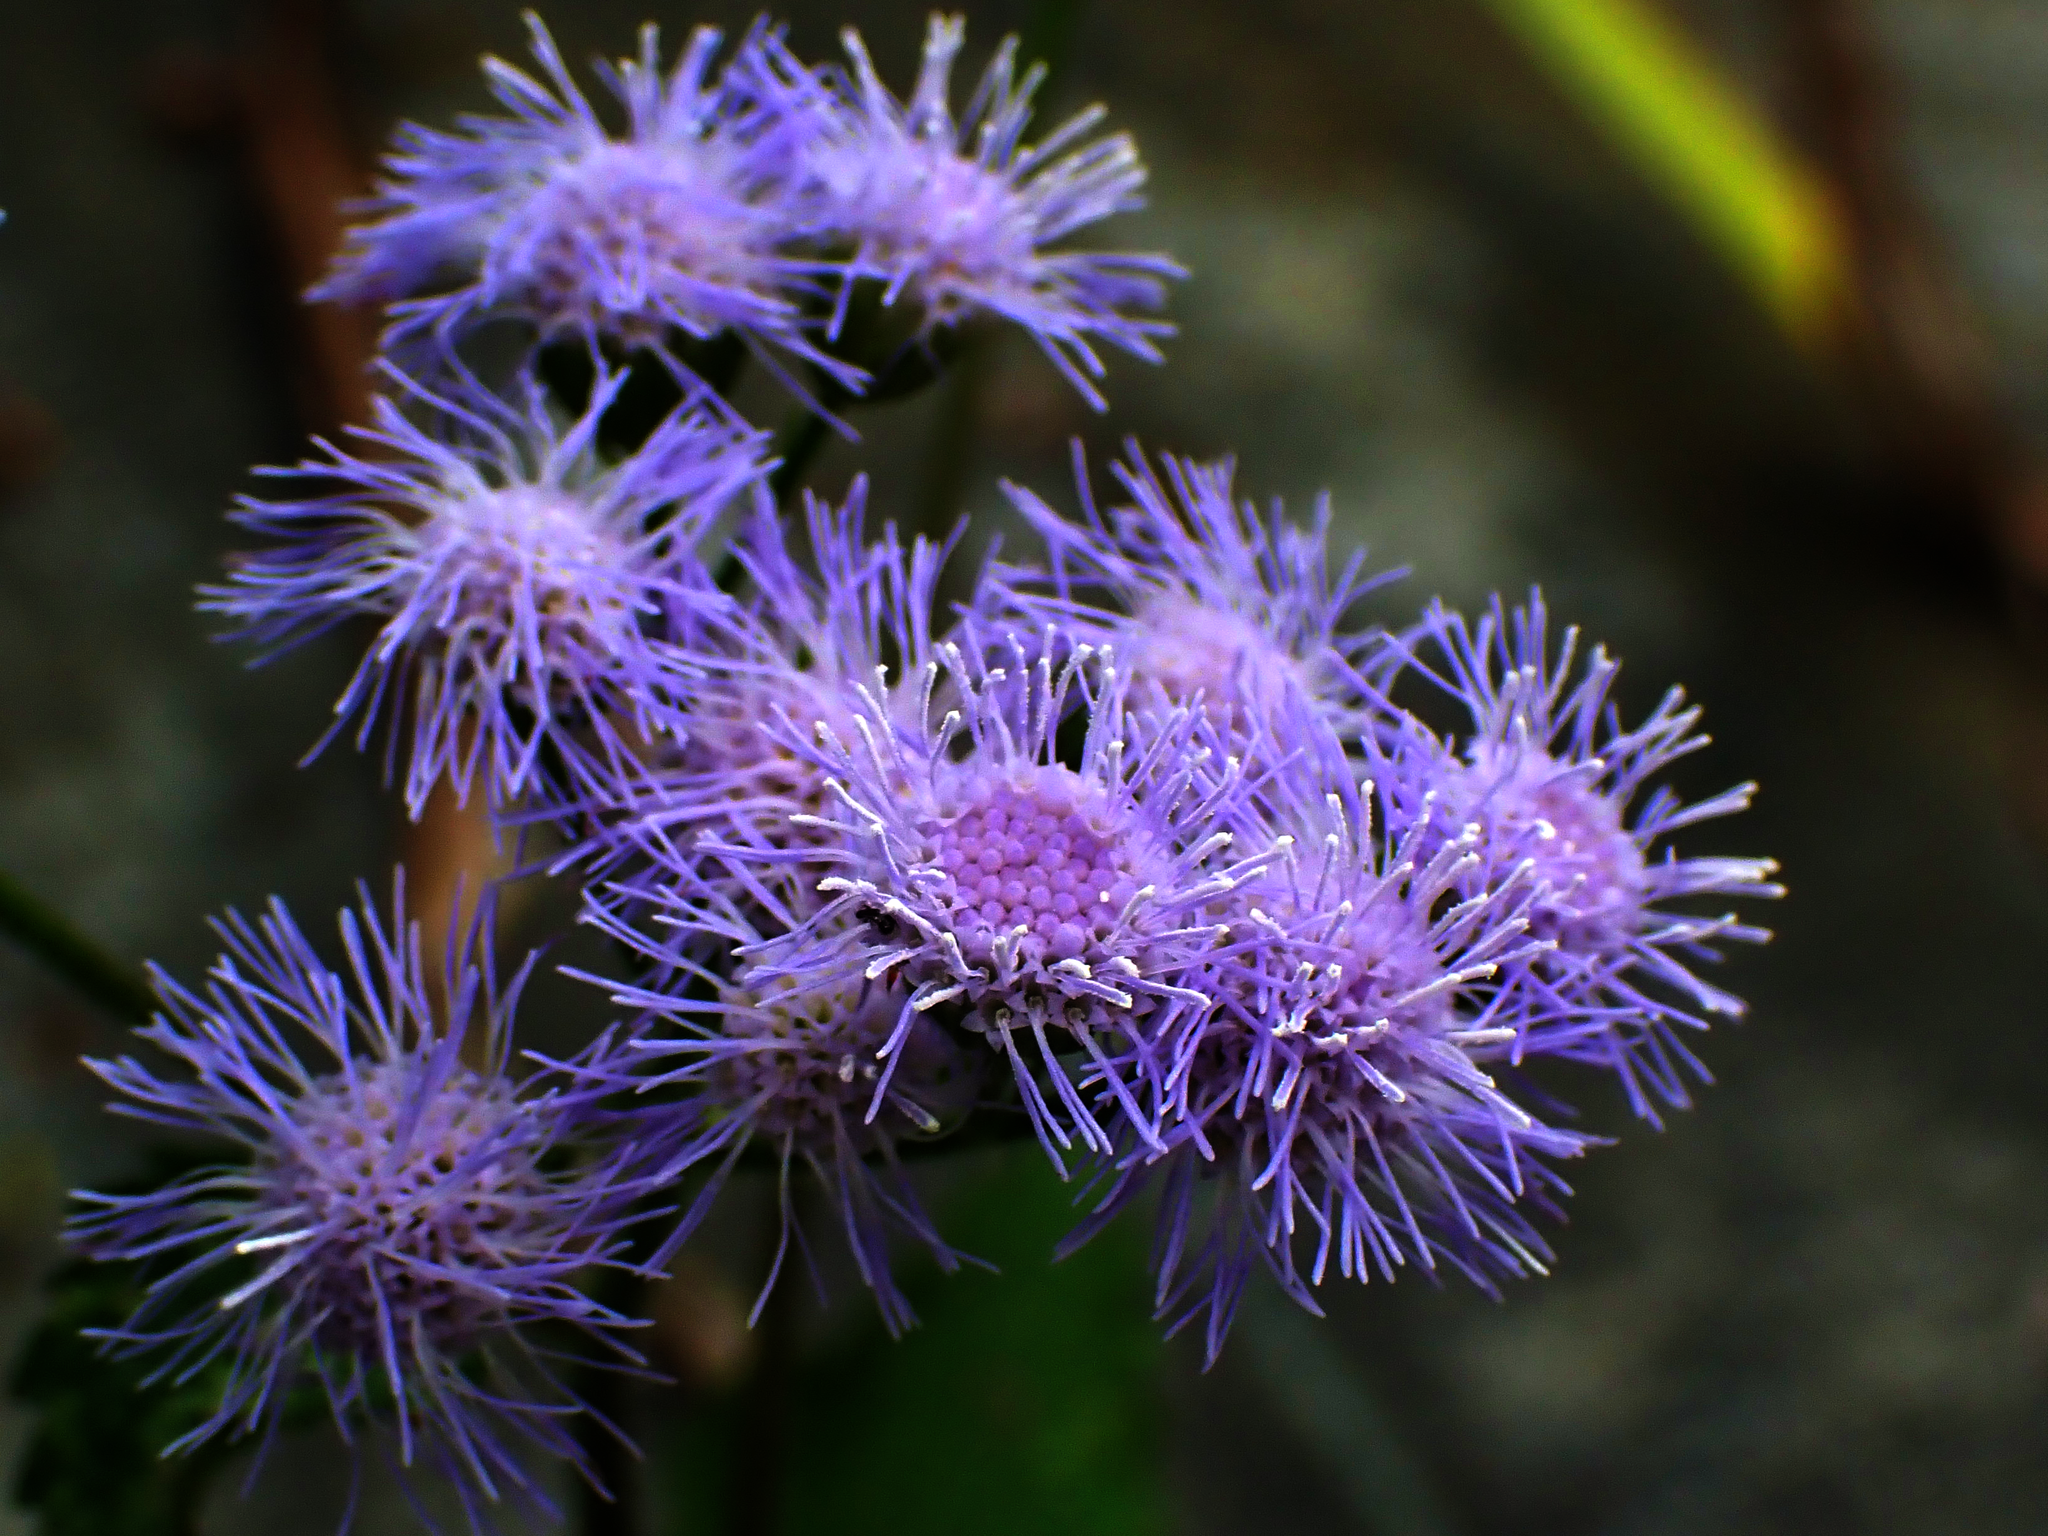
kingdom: Plantae
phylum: Tracheophyta
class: Magnoliopsida
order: Asterales
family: Asteraceae
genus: Conoclinium
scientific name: Conoclinium coelestinum
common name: Blue mistflower
